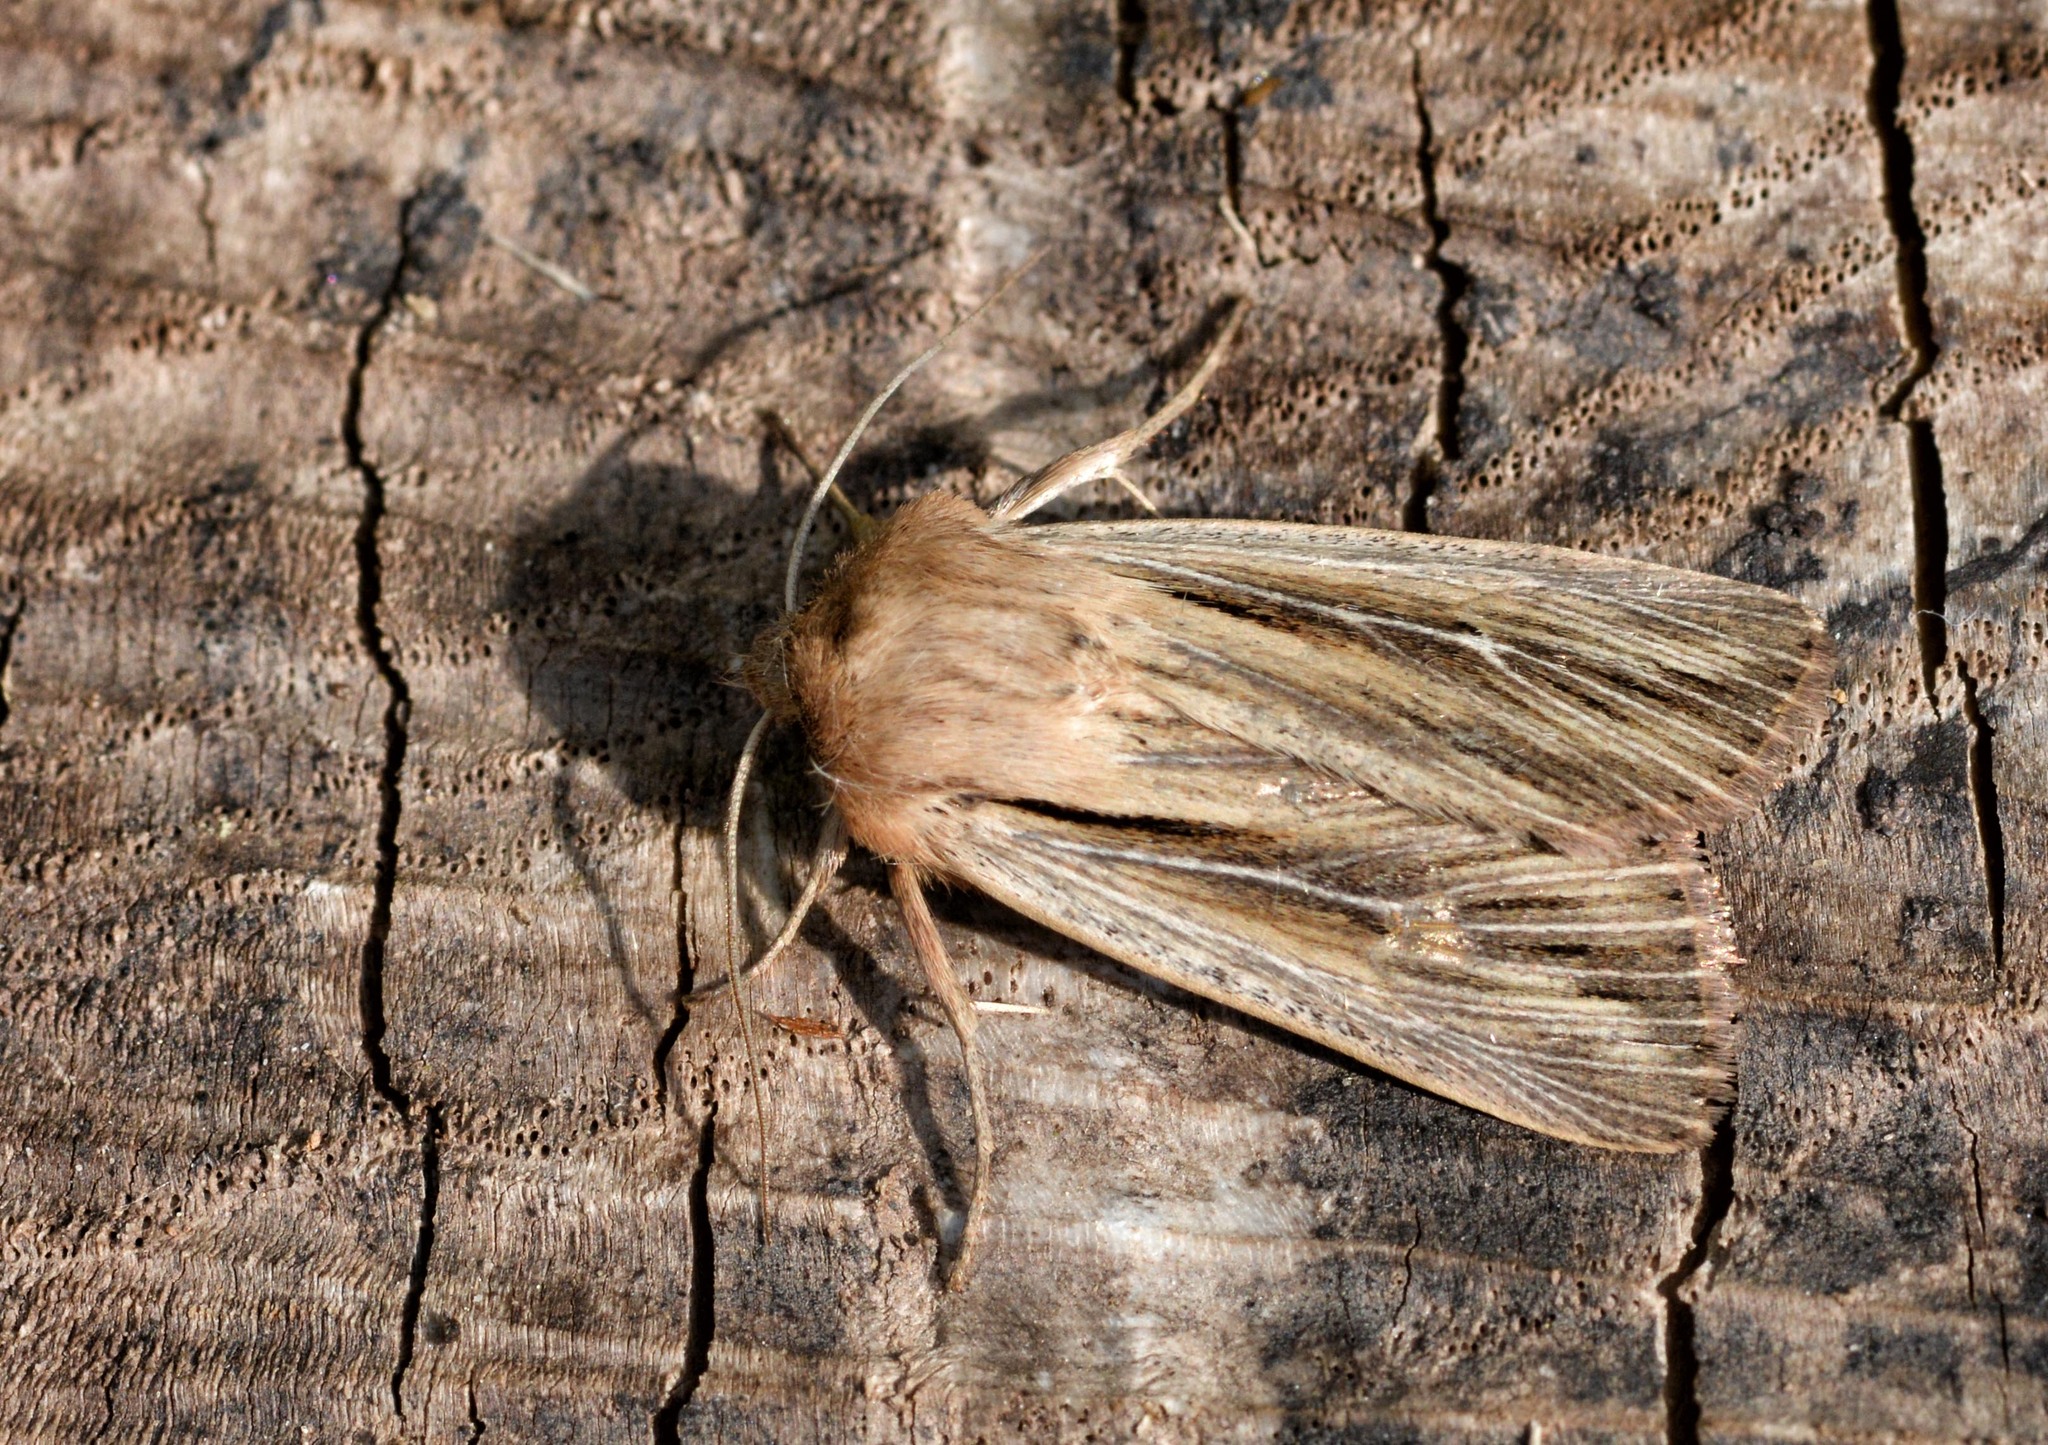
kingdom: Animalia
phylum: Arthropoda
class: Insecta
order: Lepidoptera
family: Noctuidae
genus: Leucania
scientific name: Leucania comma
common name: Shoulder-striped wainscot
